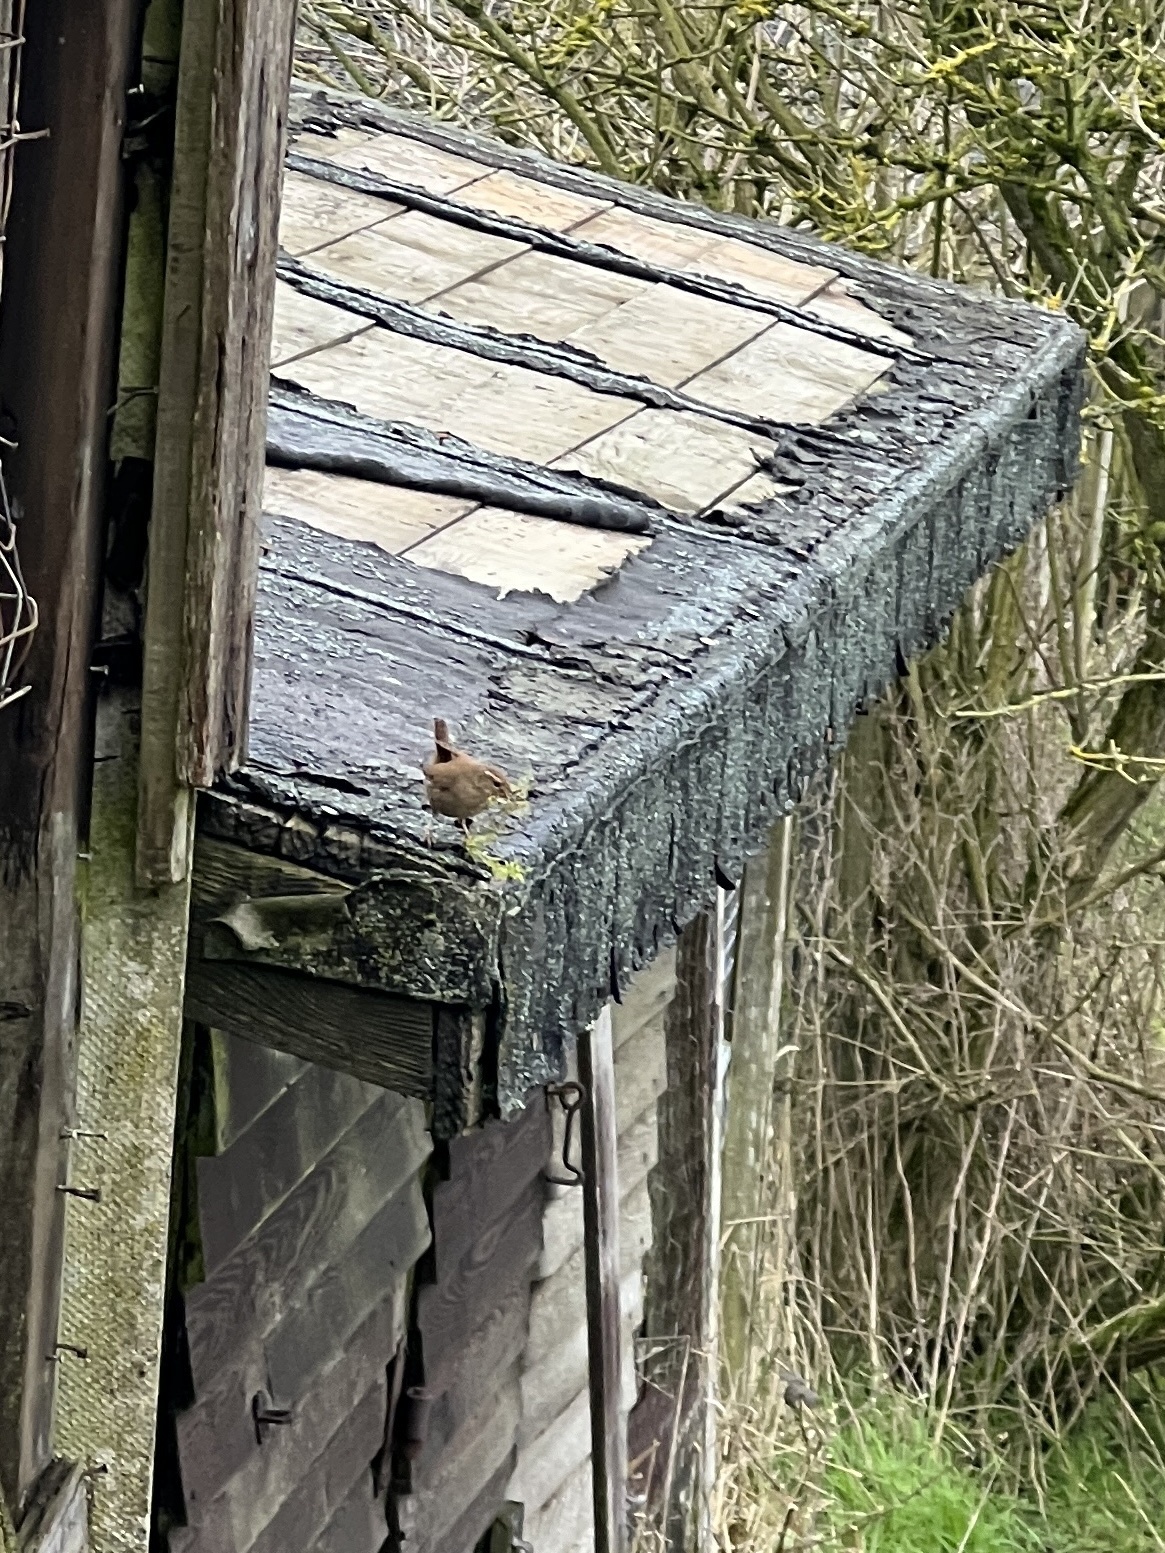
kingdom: Animalia
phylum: Chordata
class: Aves
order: Passeriformes
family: Troglodytidae
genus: Troglodytes
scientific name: Troglodytes troglodytes
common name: Eurasian wren
